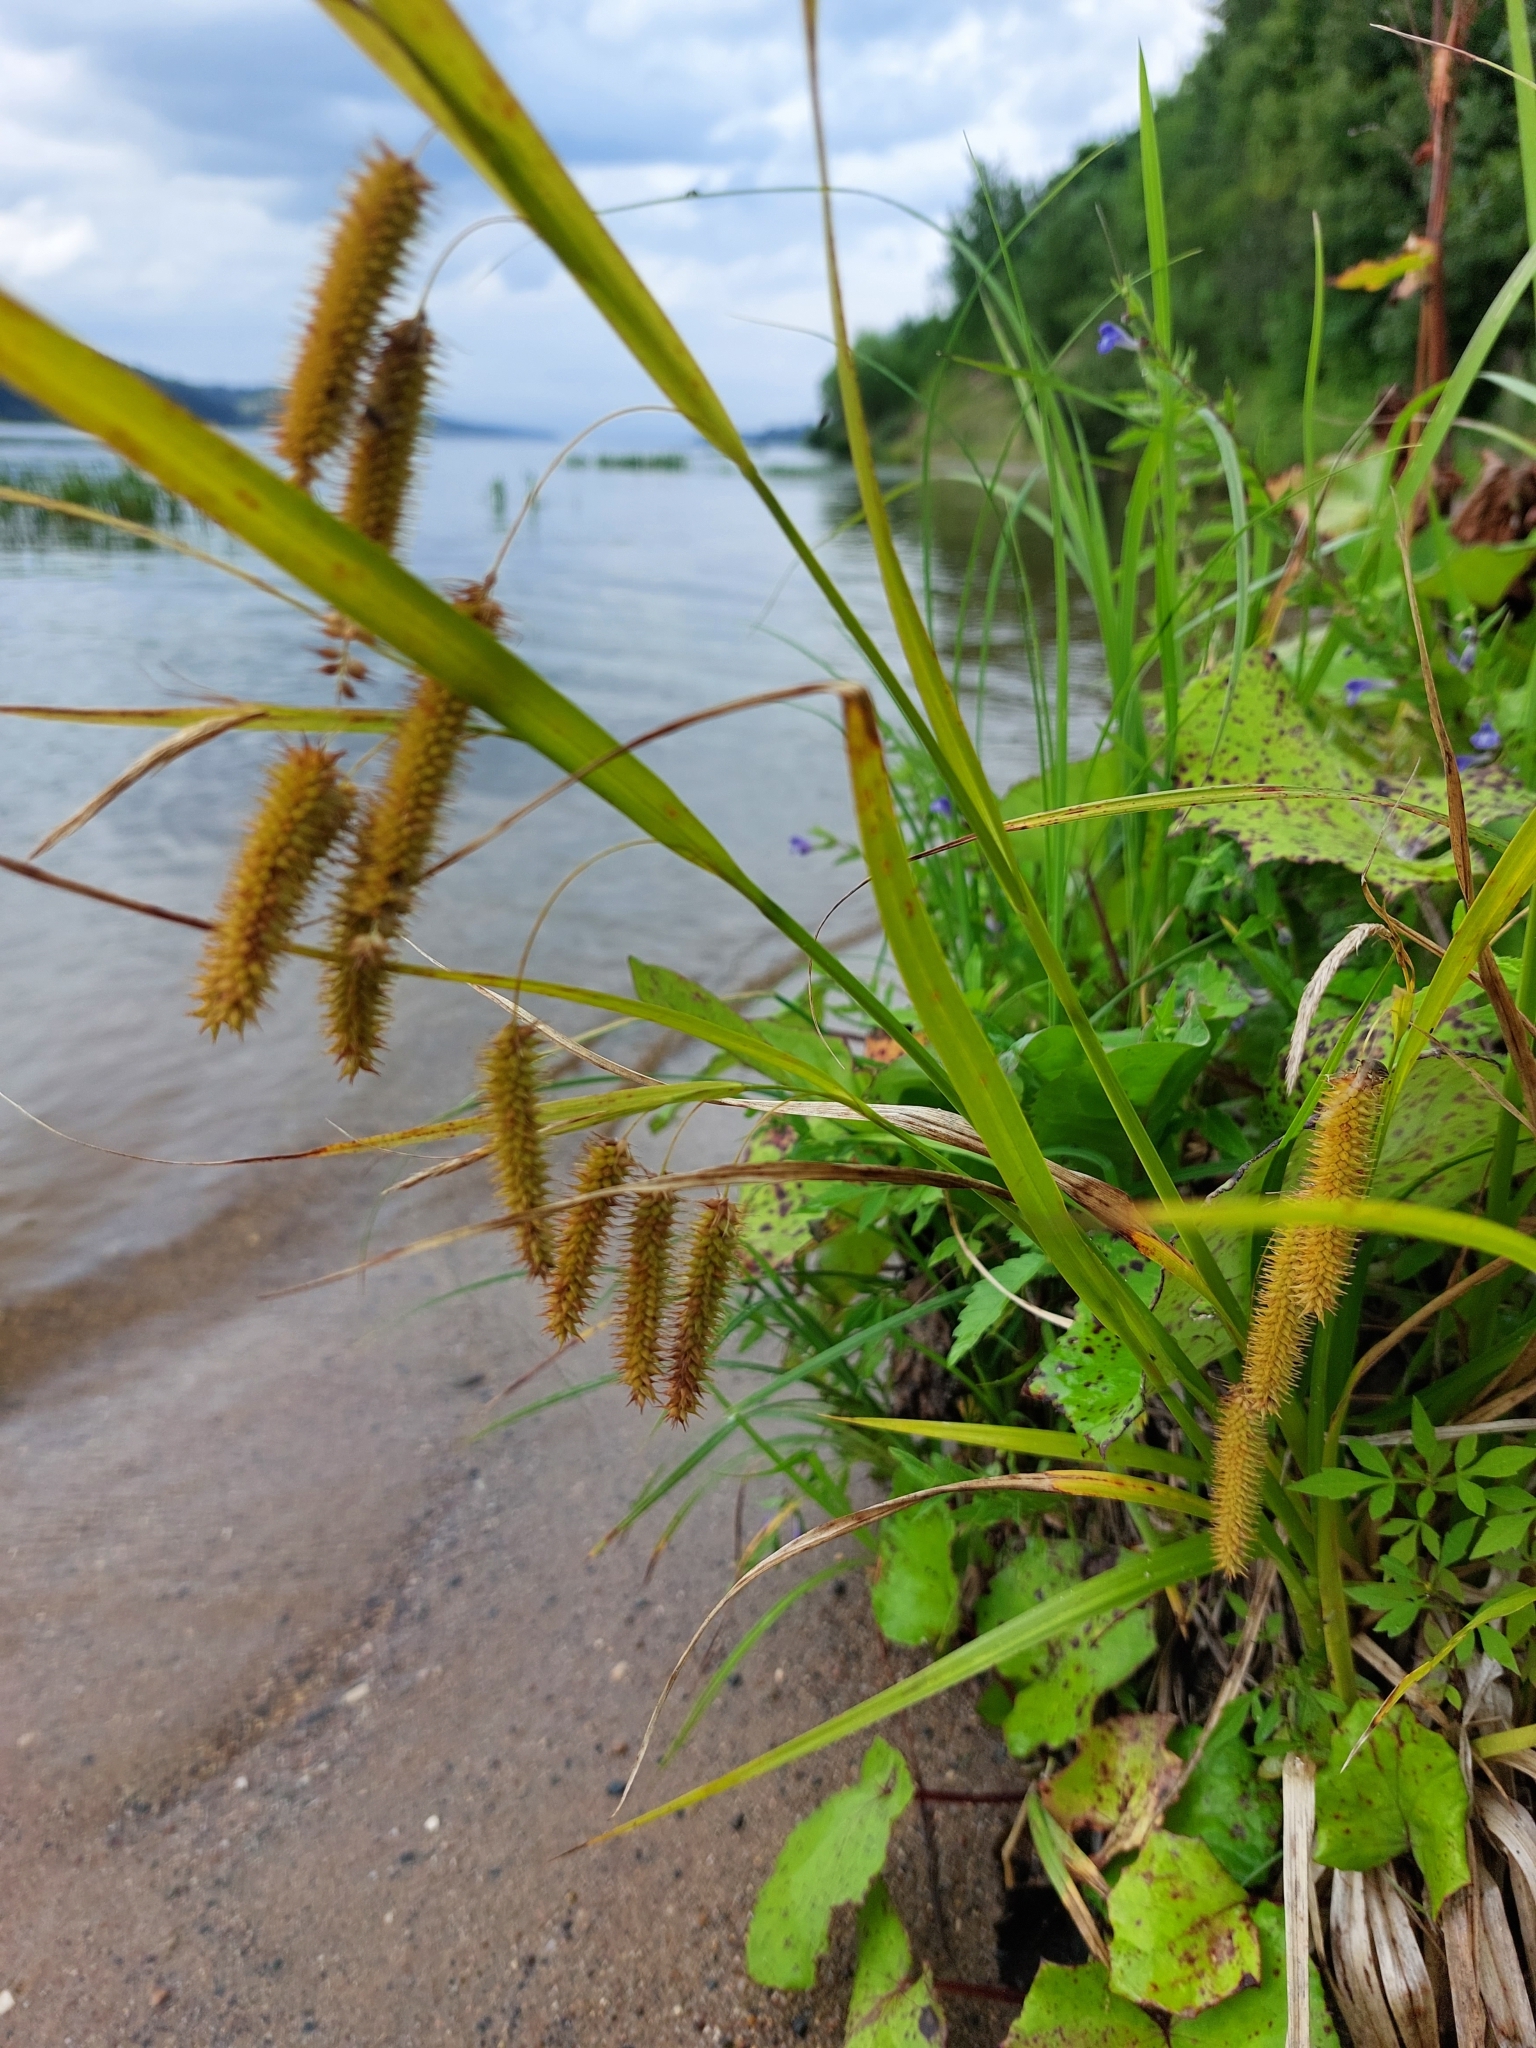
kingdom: Plantae
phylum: Tracheophyta
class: Liliopsida
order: Poales
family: Cyperaceae
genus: Carex
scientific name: Carex pseudocyperus
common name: Cyperus sedge
